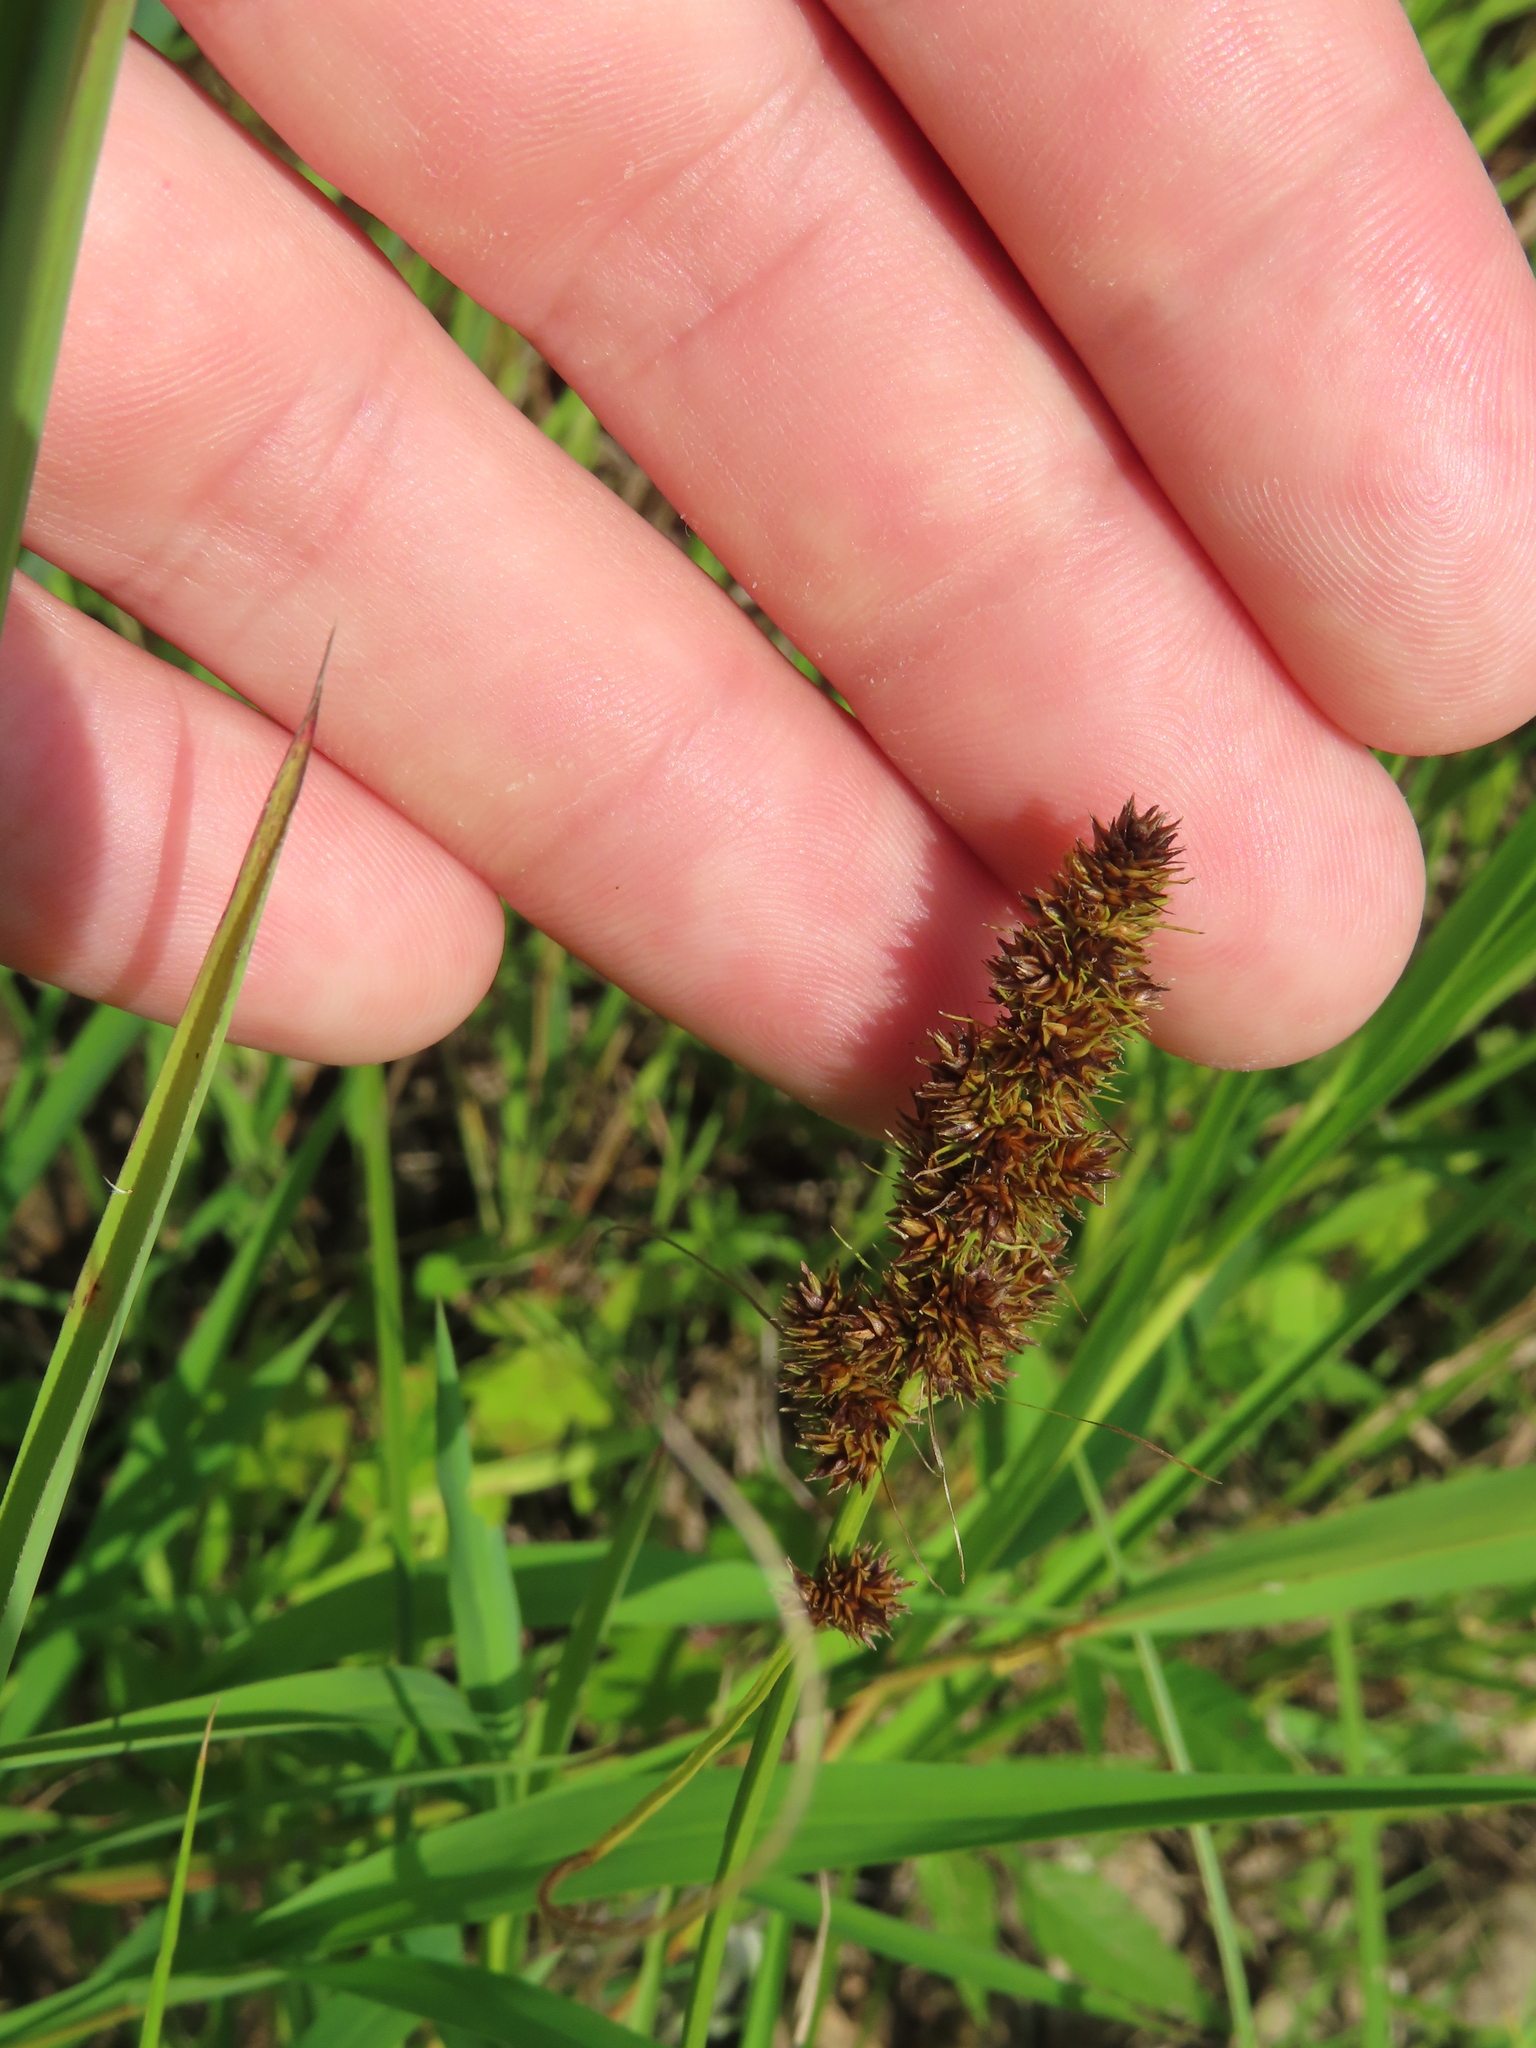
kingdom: Plantae
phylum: Tracheophyta
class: Liliopsida
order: Poales
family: Cyperaceae
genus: Carex
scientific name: Carex vulpinoidea
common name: American fox-sedge
